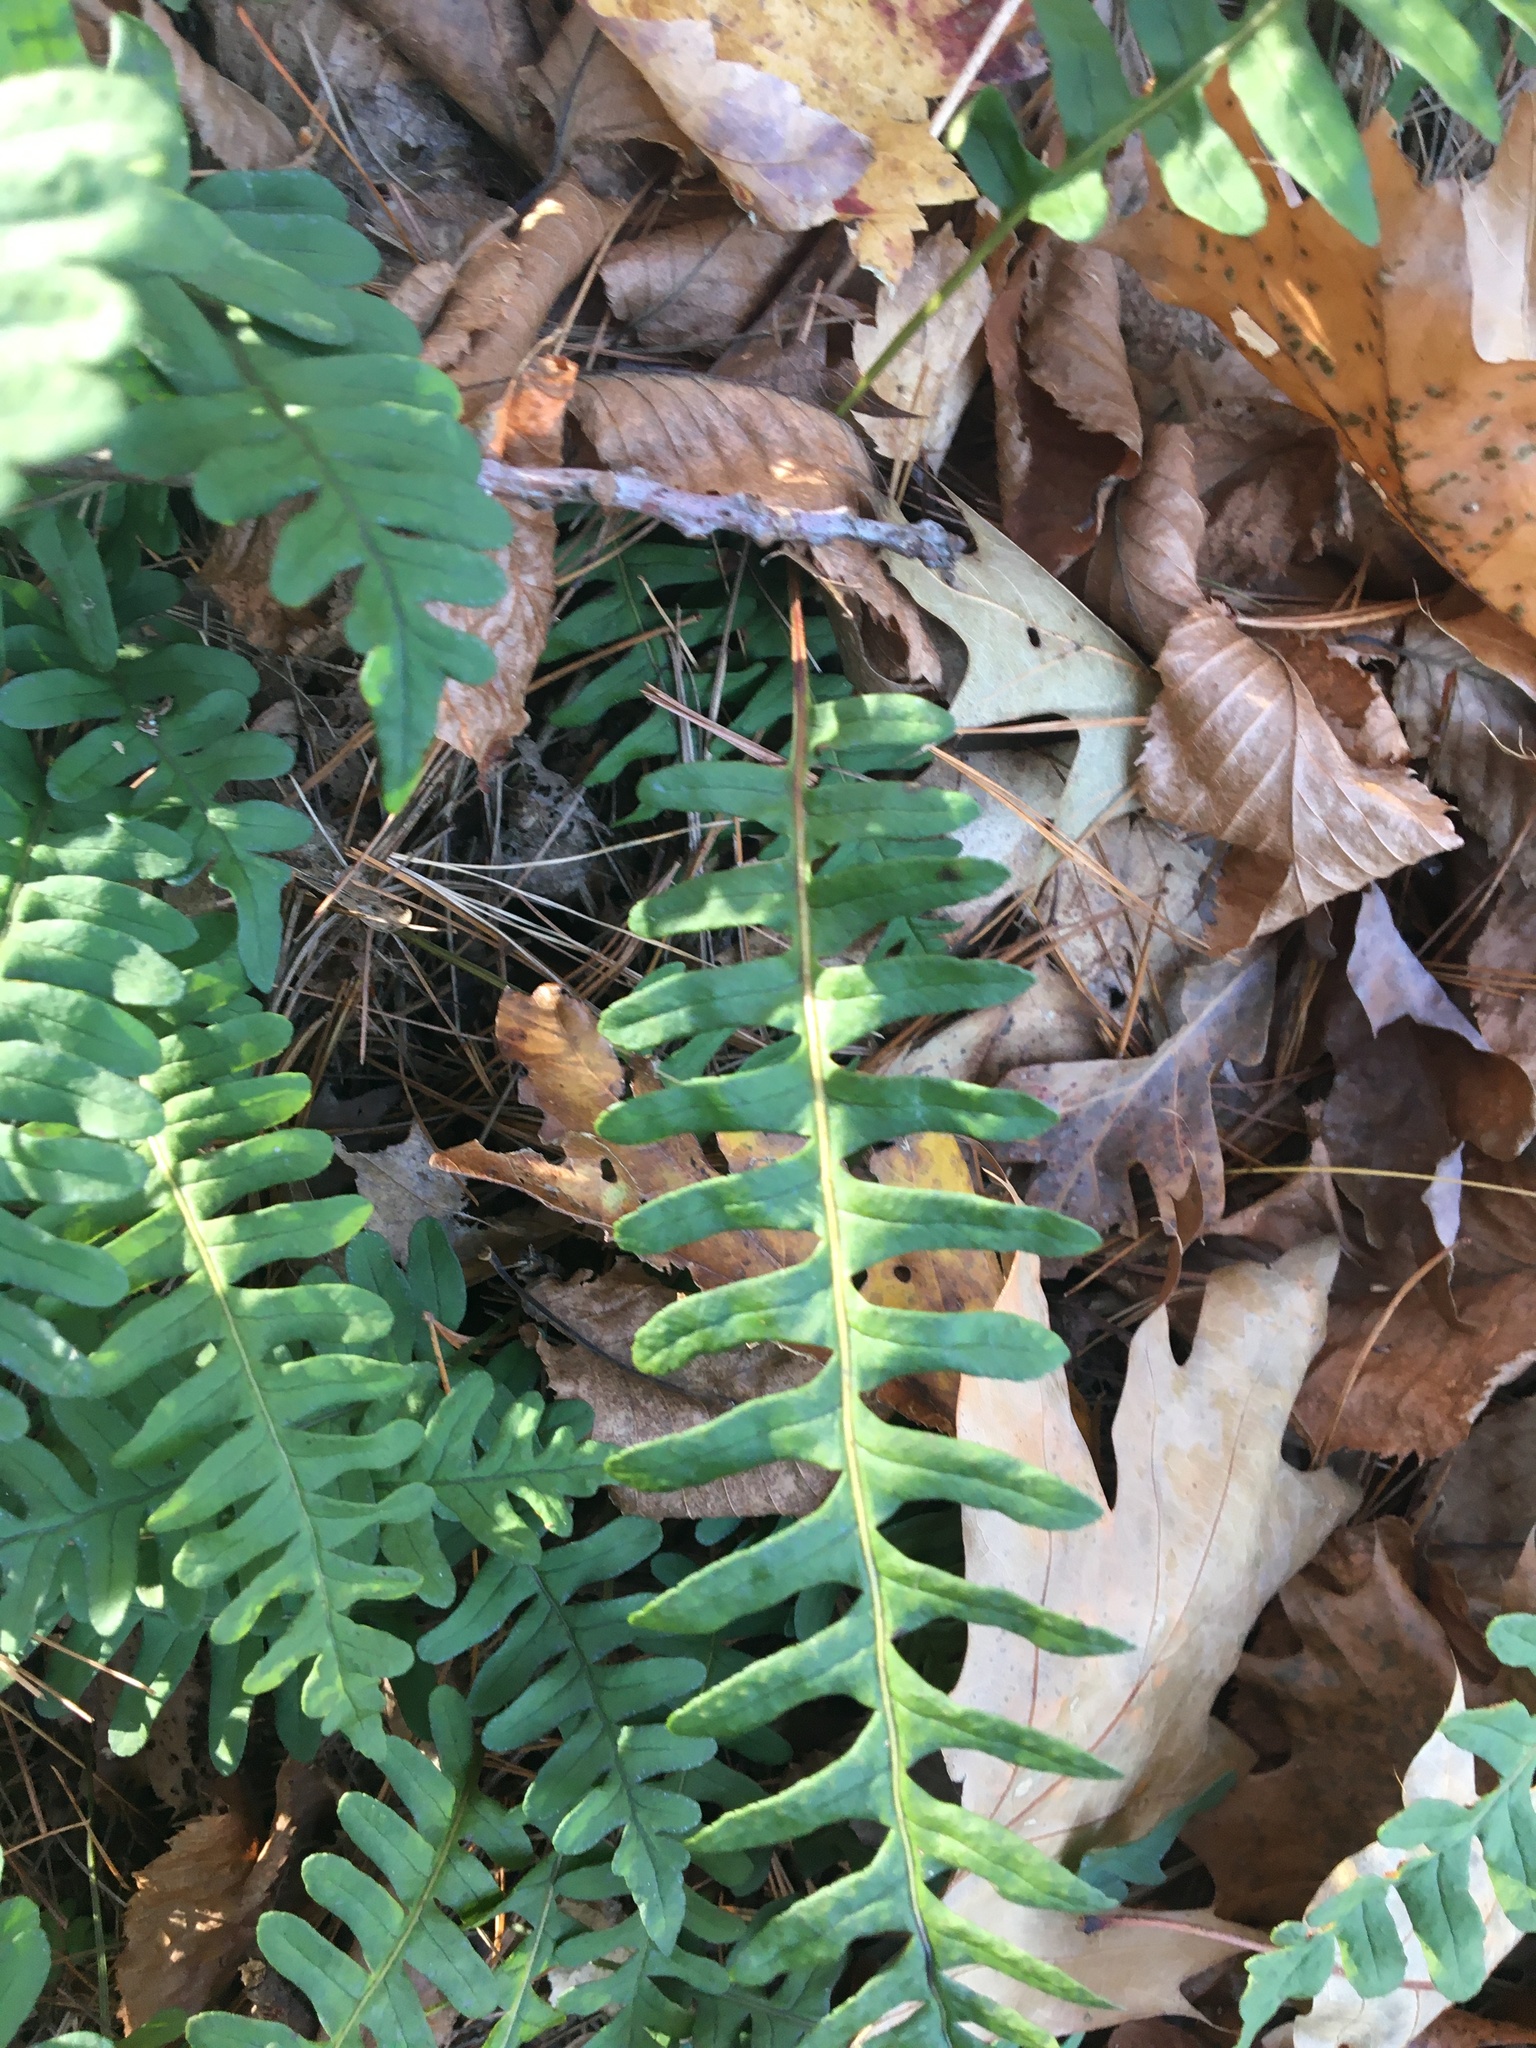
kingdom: Plantae
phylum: Tracheophyta
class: Polypodiopsida
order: Polypodiales
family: Polypodiaceae
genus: Polypodium
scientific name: Polypodium virginianum
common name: American wall fern
